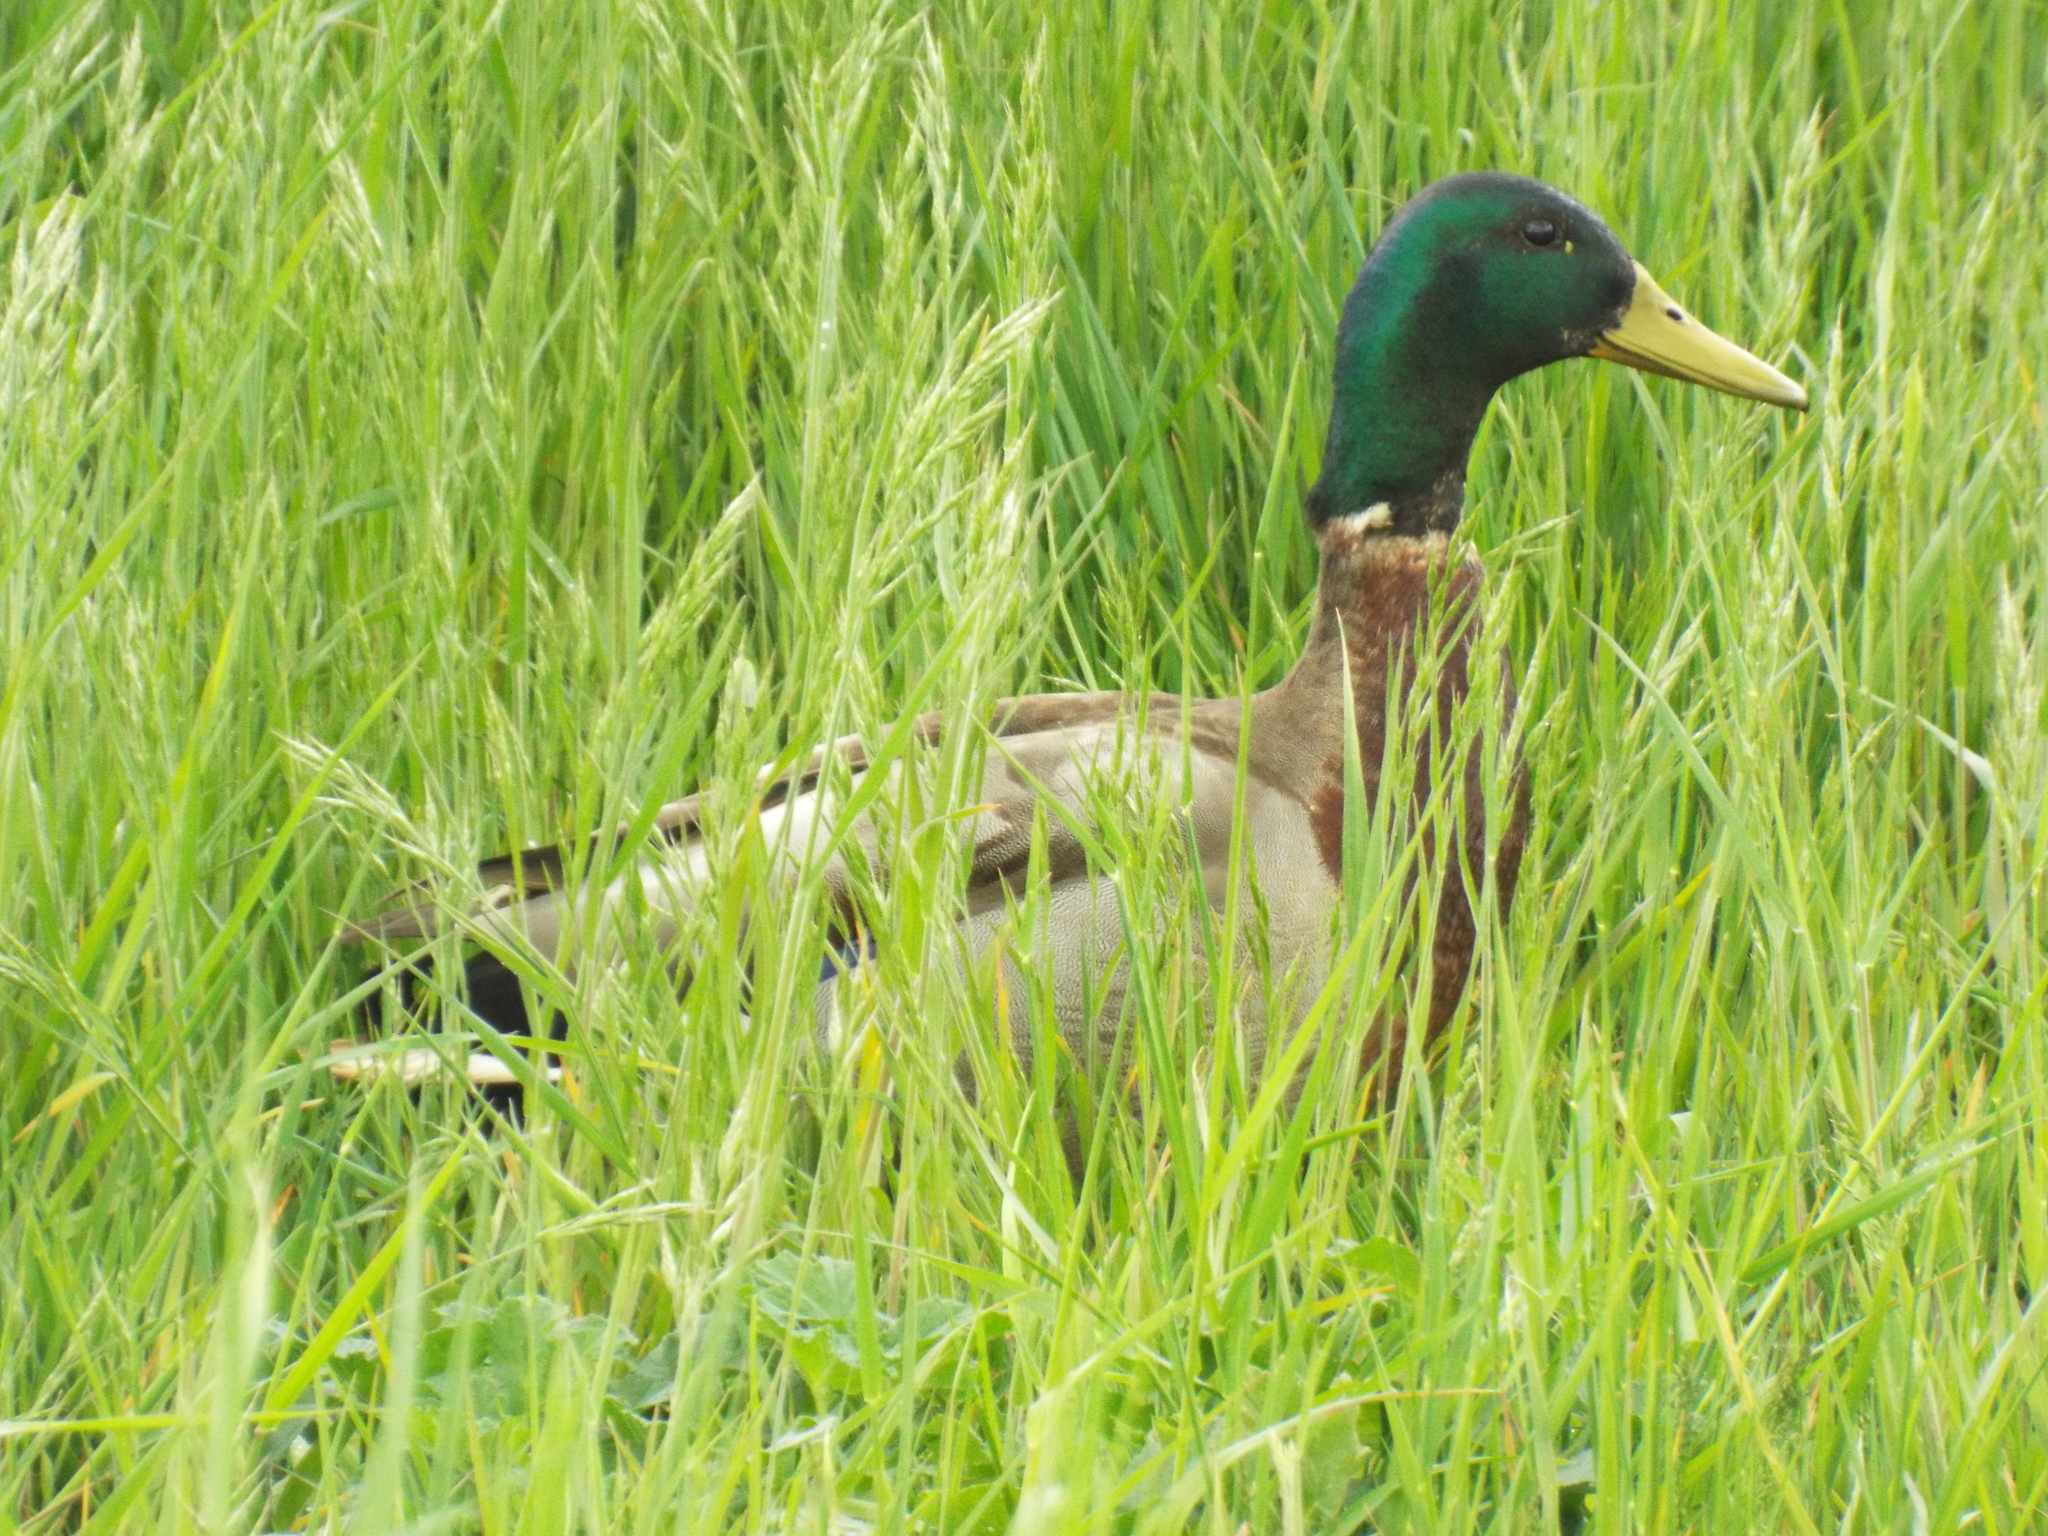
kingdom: Animalia
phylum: Chordata
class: Aves
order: Anseriformes
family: Anatidae
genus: Anas
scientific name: Anas platyrhynchos
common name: Mallard
